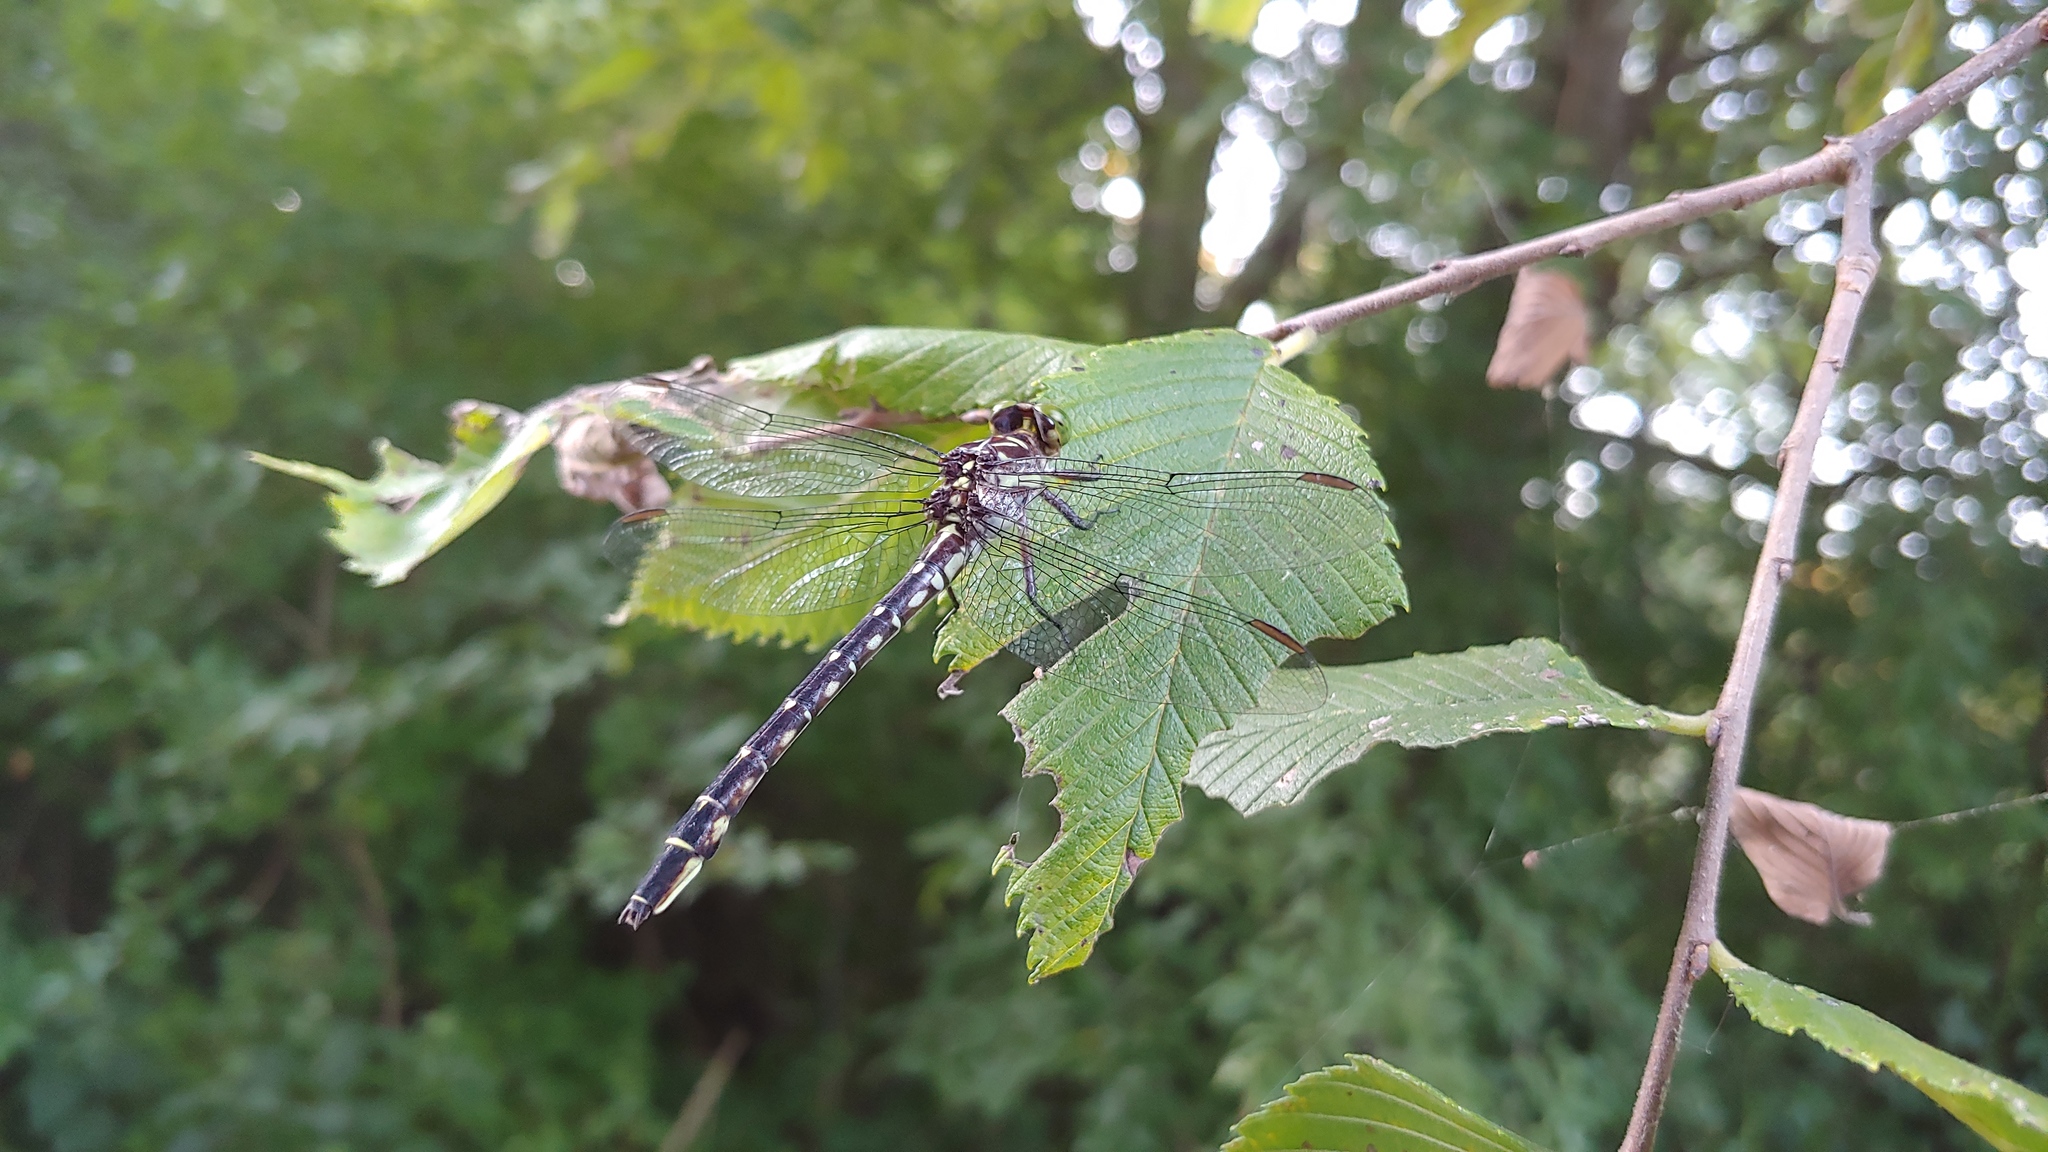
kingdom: Animalia
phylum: Arthropoda
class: Insecta
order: Odonata
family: Gomphidae
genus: Stylurus
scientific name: Stylurus spiniceps
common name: Arrow clubtail
